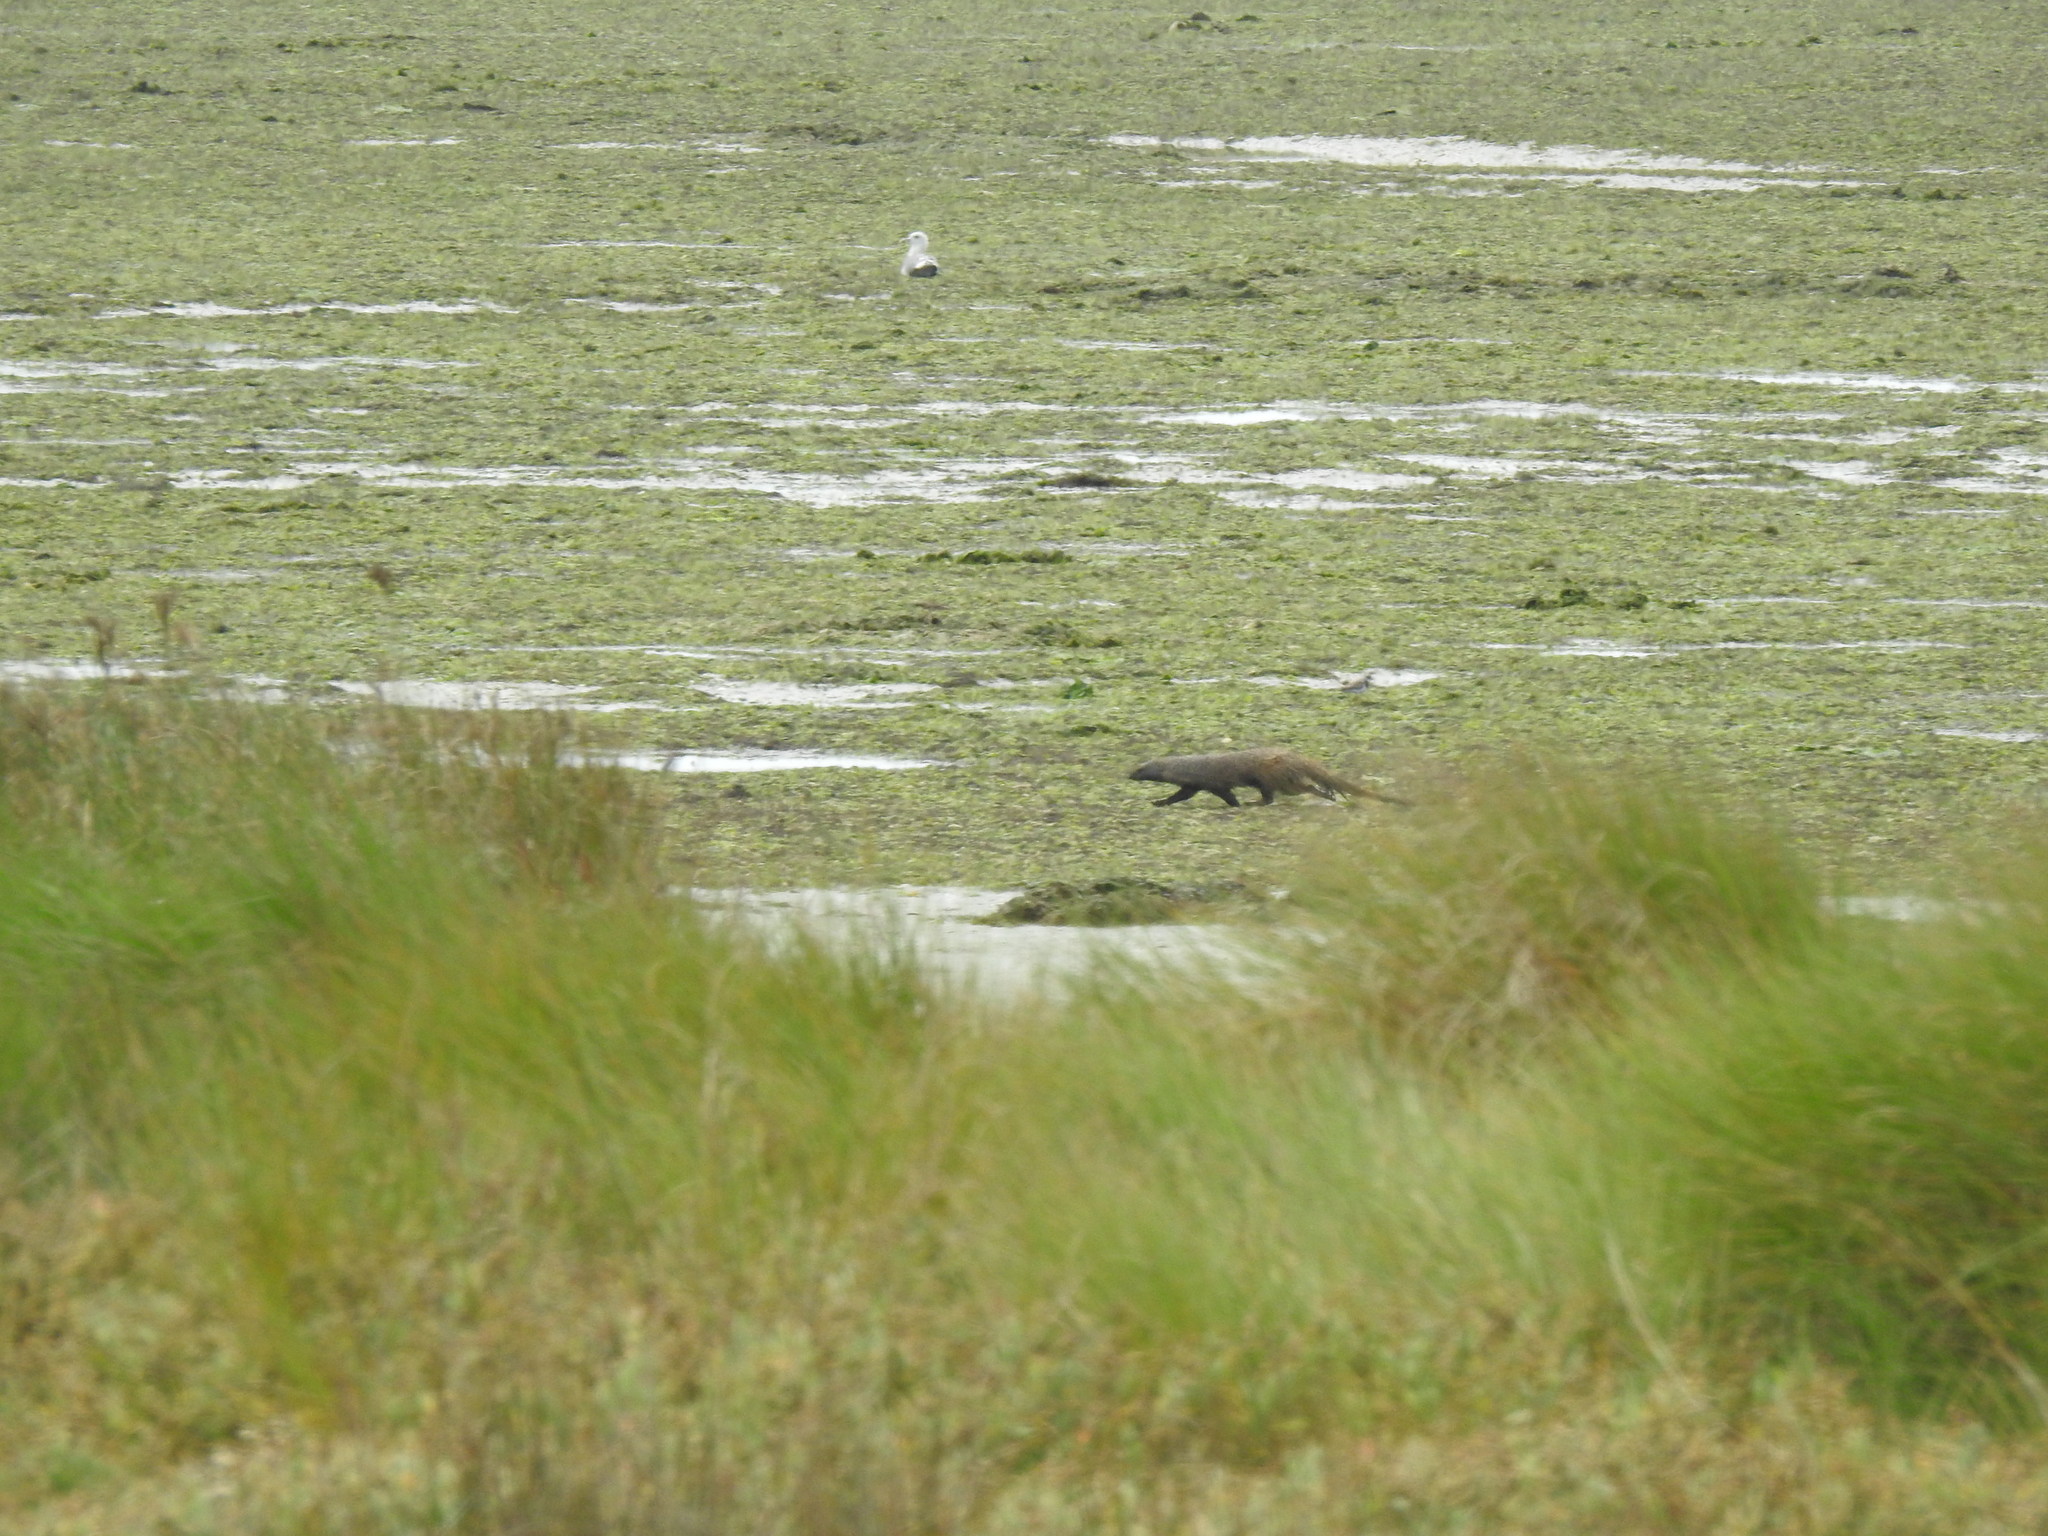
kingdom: Animalia
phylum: Chordata
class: Mammalia
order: Carnivora
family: Herpestidae
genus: Herpestes
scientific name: Herpestes ichneumon
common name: Egyptian mongoose
